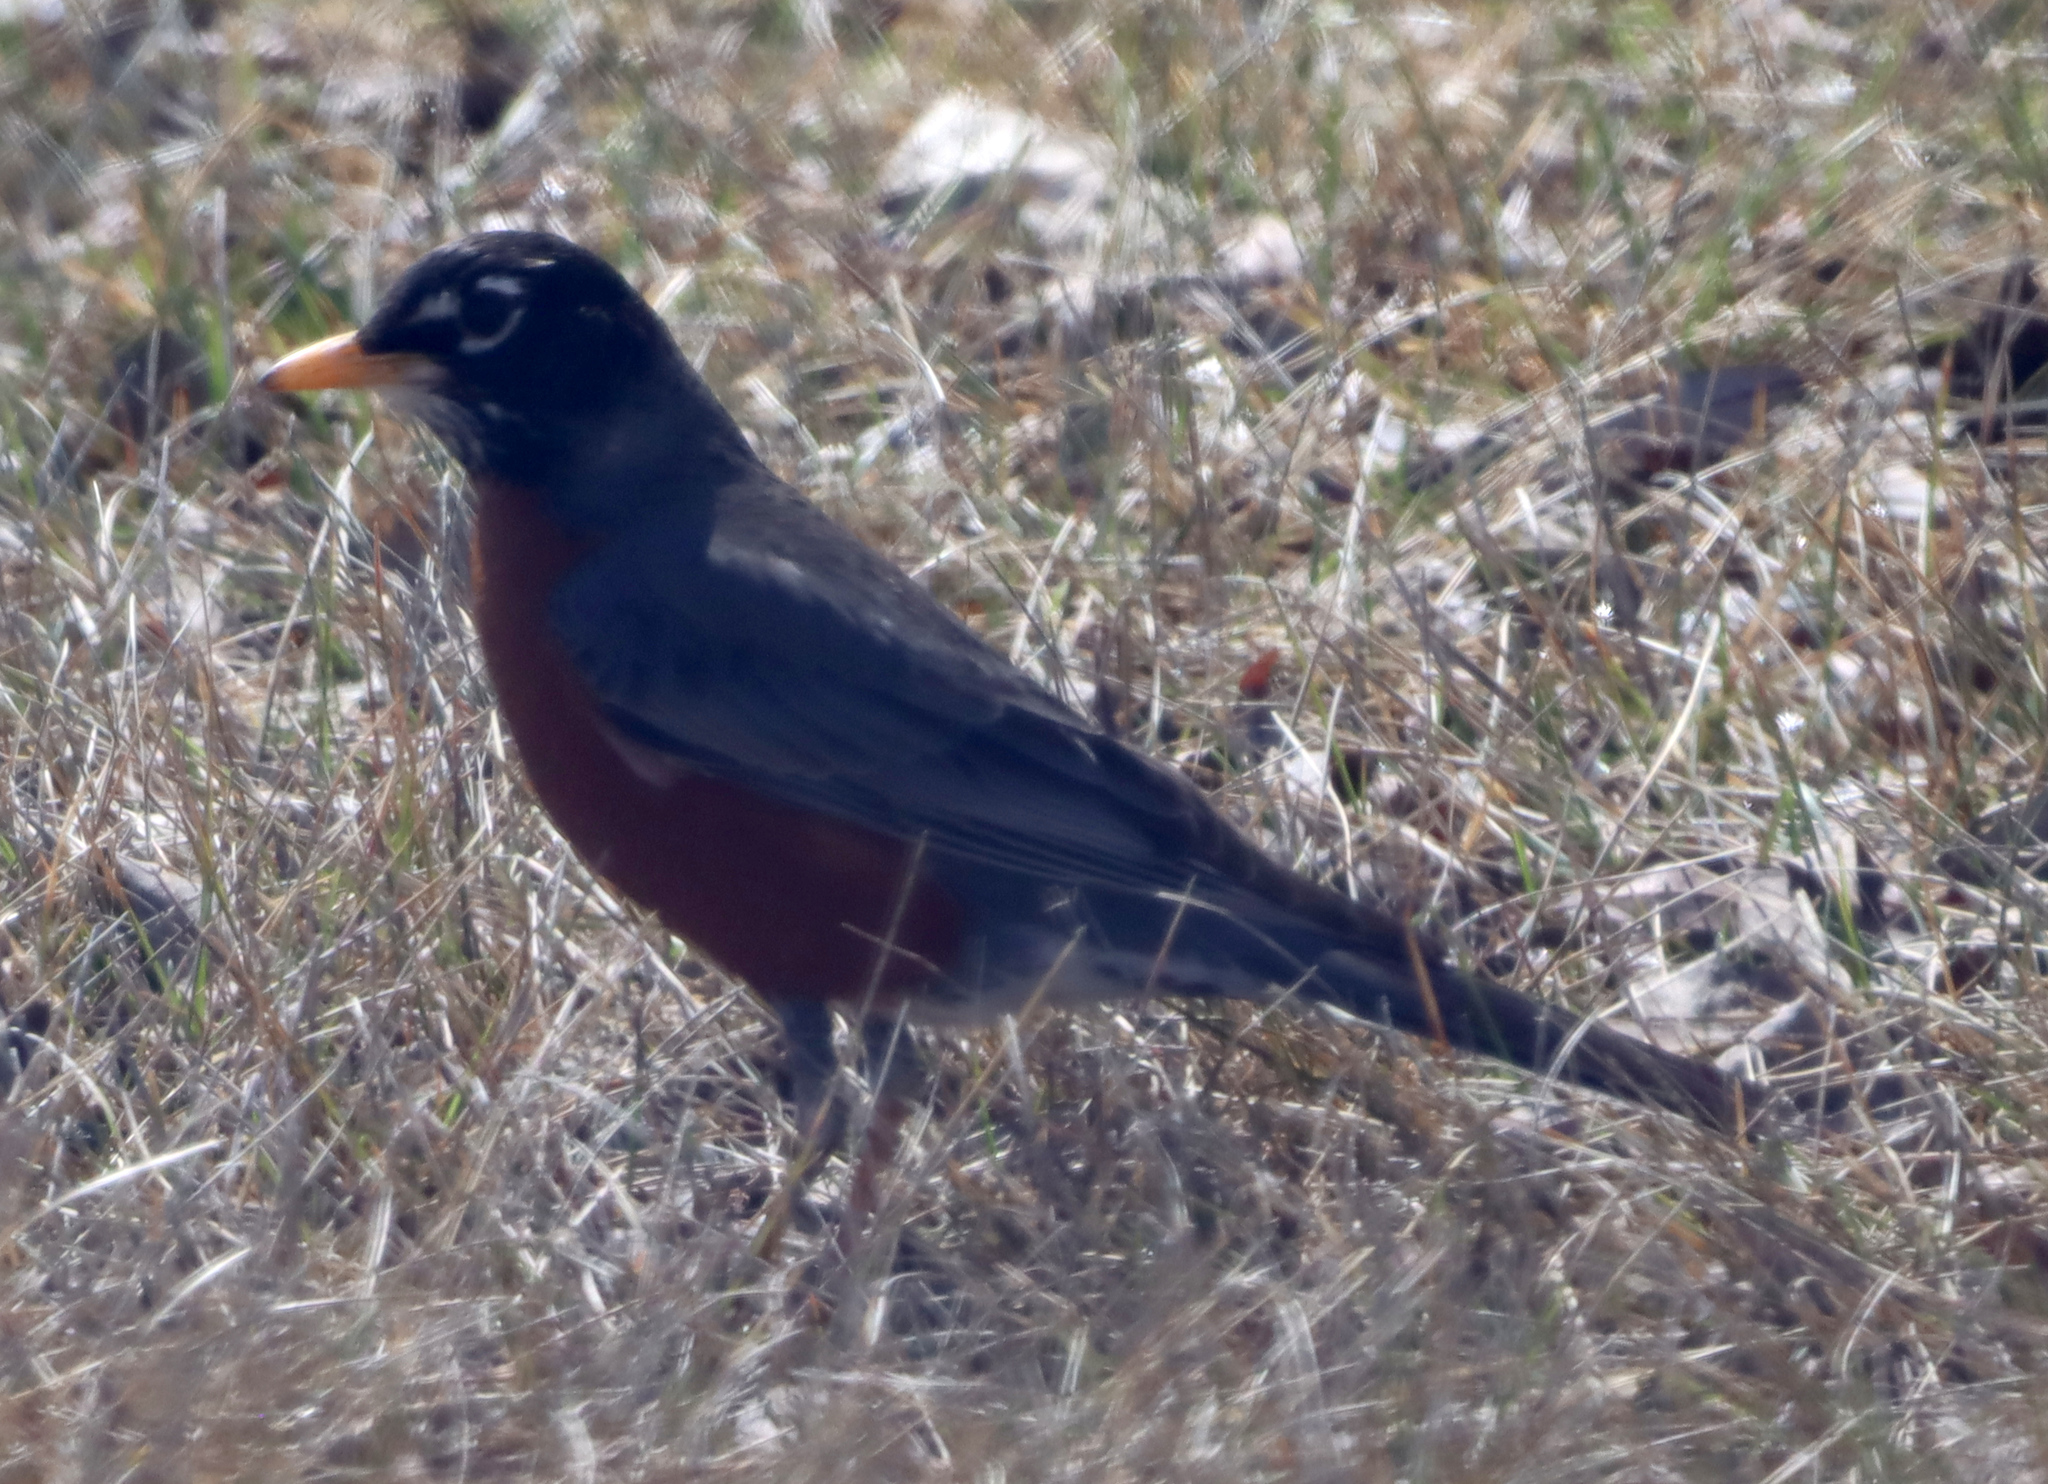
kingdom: Animalia
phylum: Chordata
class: Aves
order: Passeriformes
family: Turdidae
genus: Turdus
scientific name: Turdus migratorius
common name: American robin
